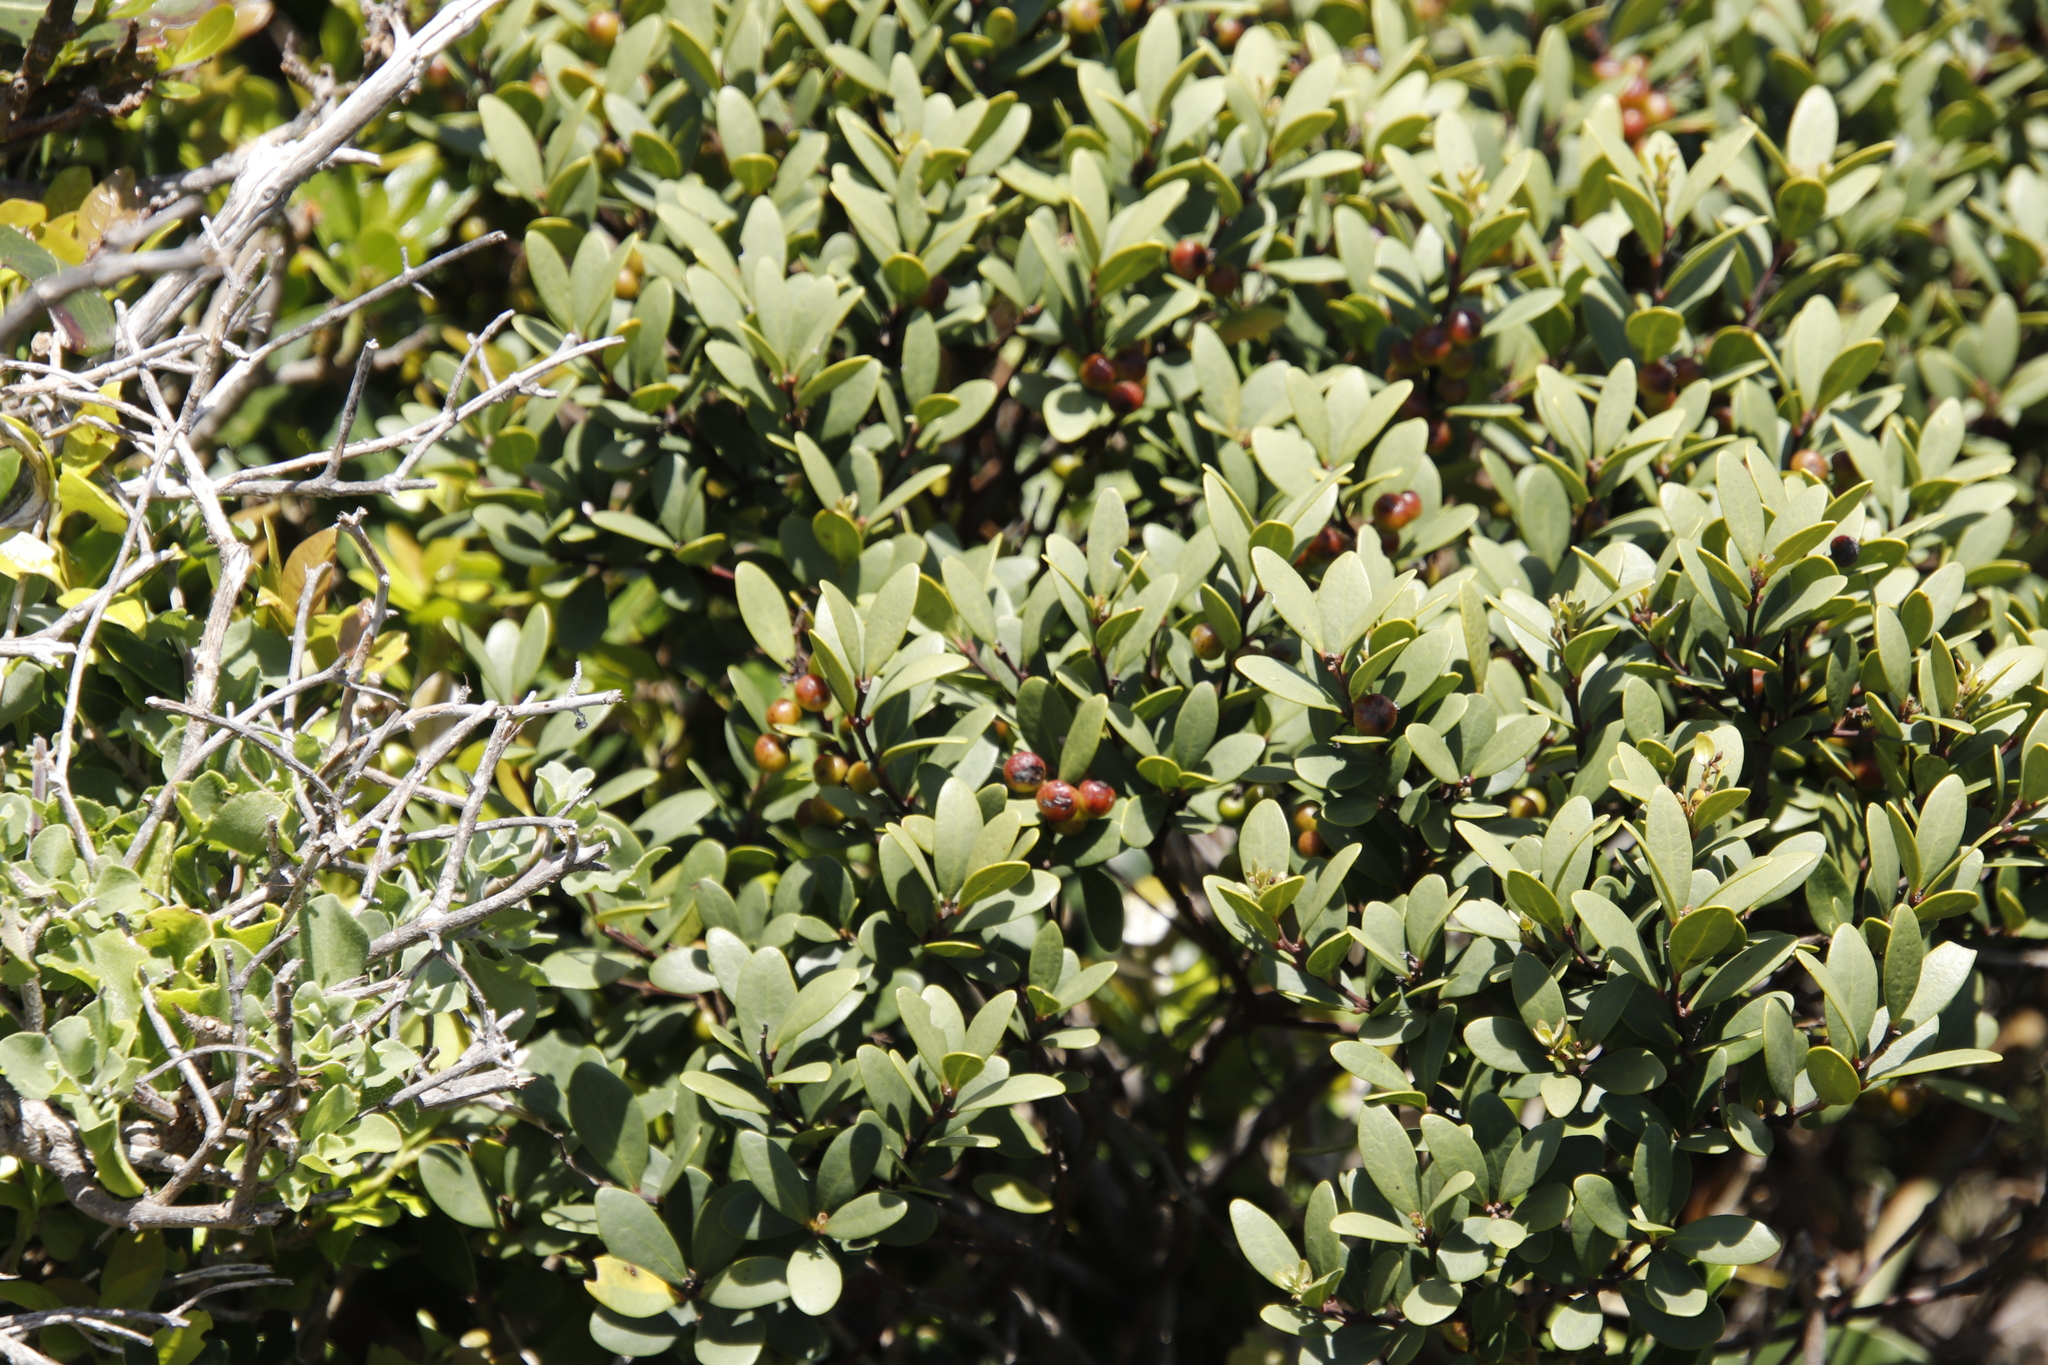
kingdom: Plantae
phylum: Tracheophyta
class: Magnoliopsida
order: Ericales
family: Ebenaceae
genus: Euclea
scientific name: Euclea racemosa
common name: Dune guarri
